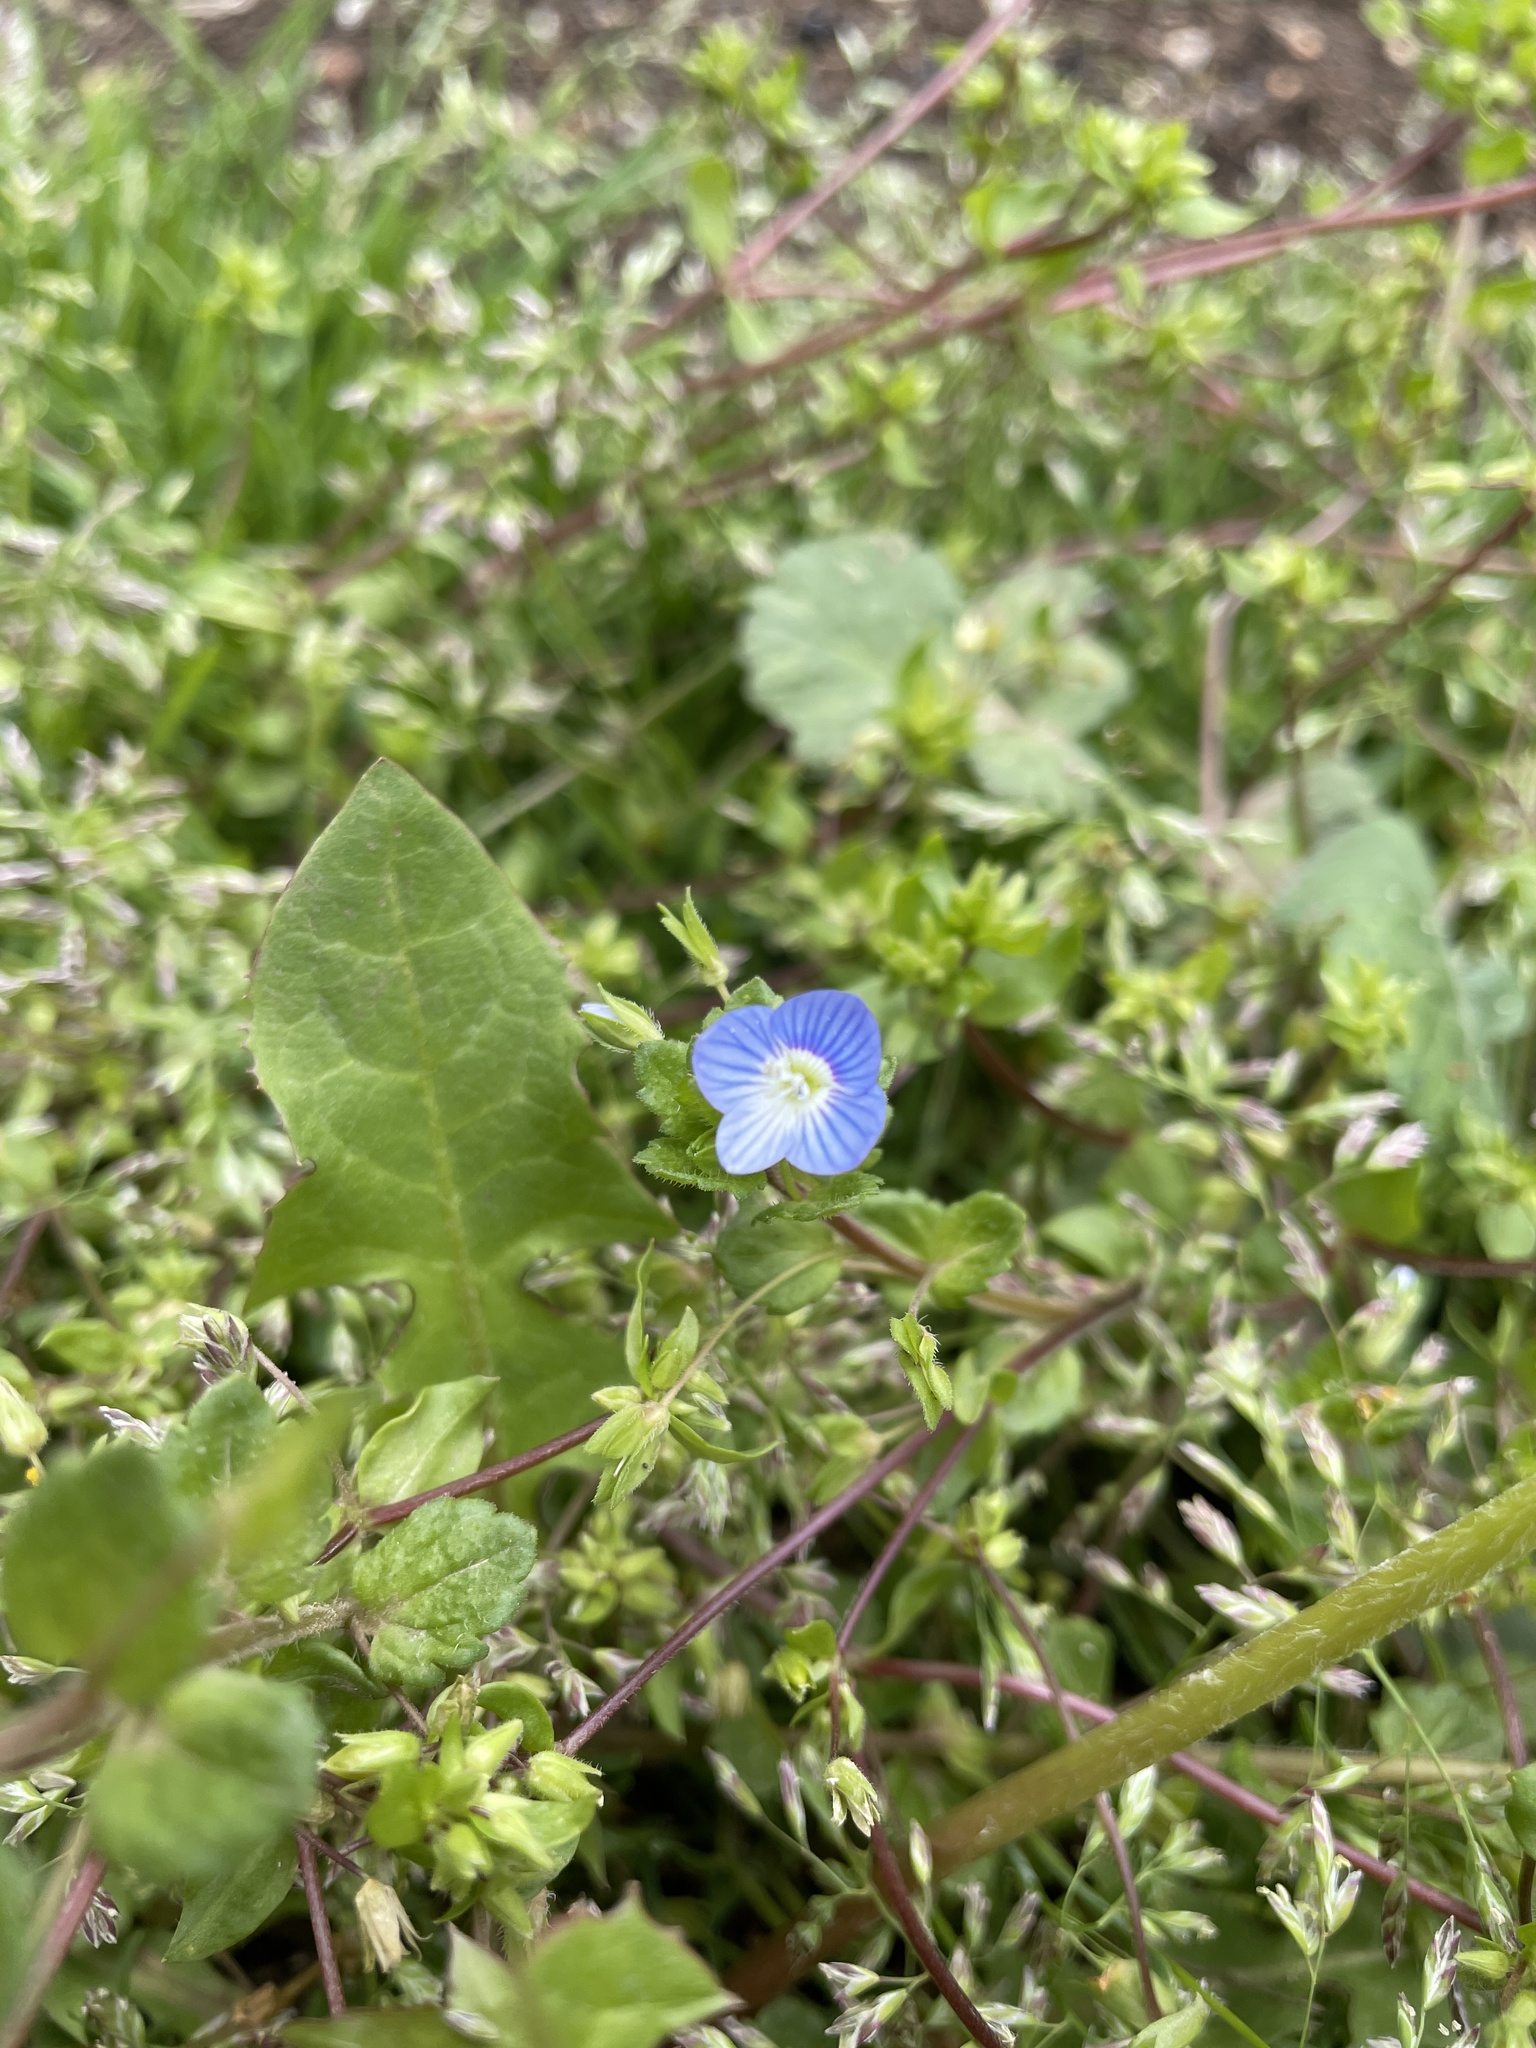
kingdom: Plantae
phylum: Tracheophyta
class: Magnoliopsida
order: Lamiales
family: Plantaginaceae
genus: Veronica
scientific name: Veronica persica
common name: Common field-speedwell
